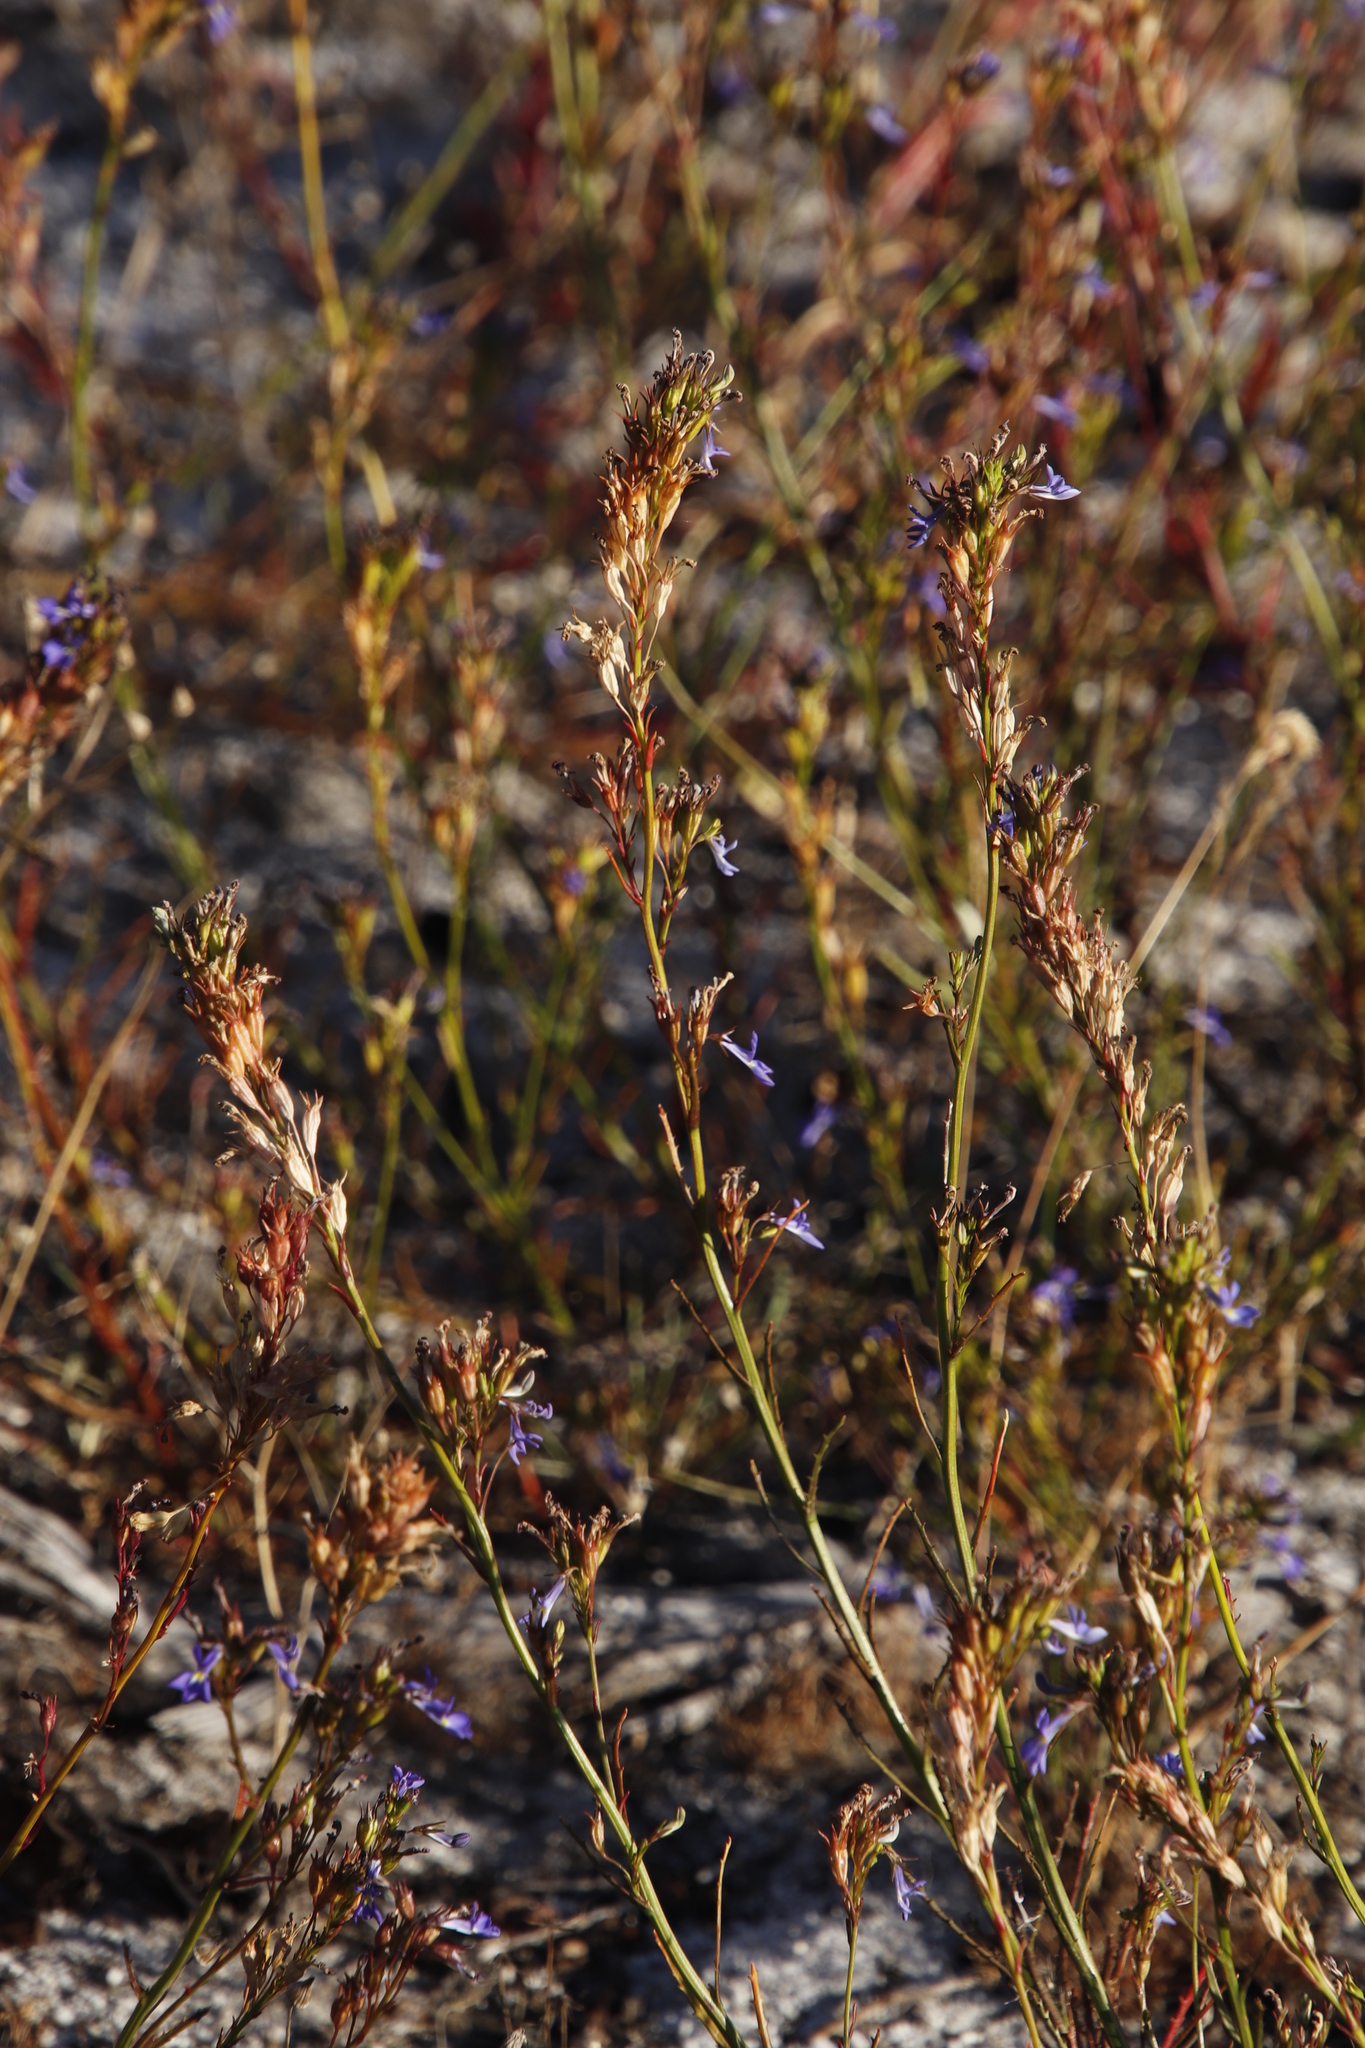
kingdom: Plantae
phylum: Tracheophyta
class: Magnoliopsida
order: Asterales
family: Campanulaceae
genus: Lobelia
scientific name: Lobelia comosa
